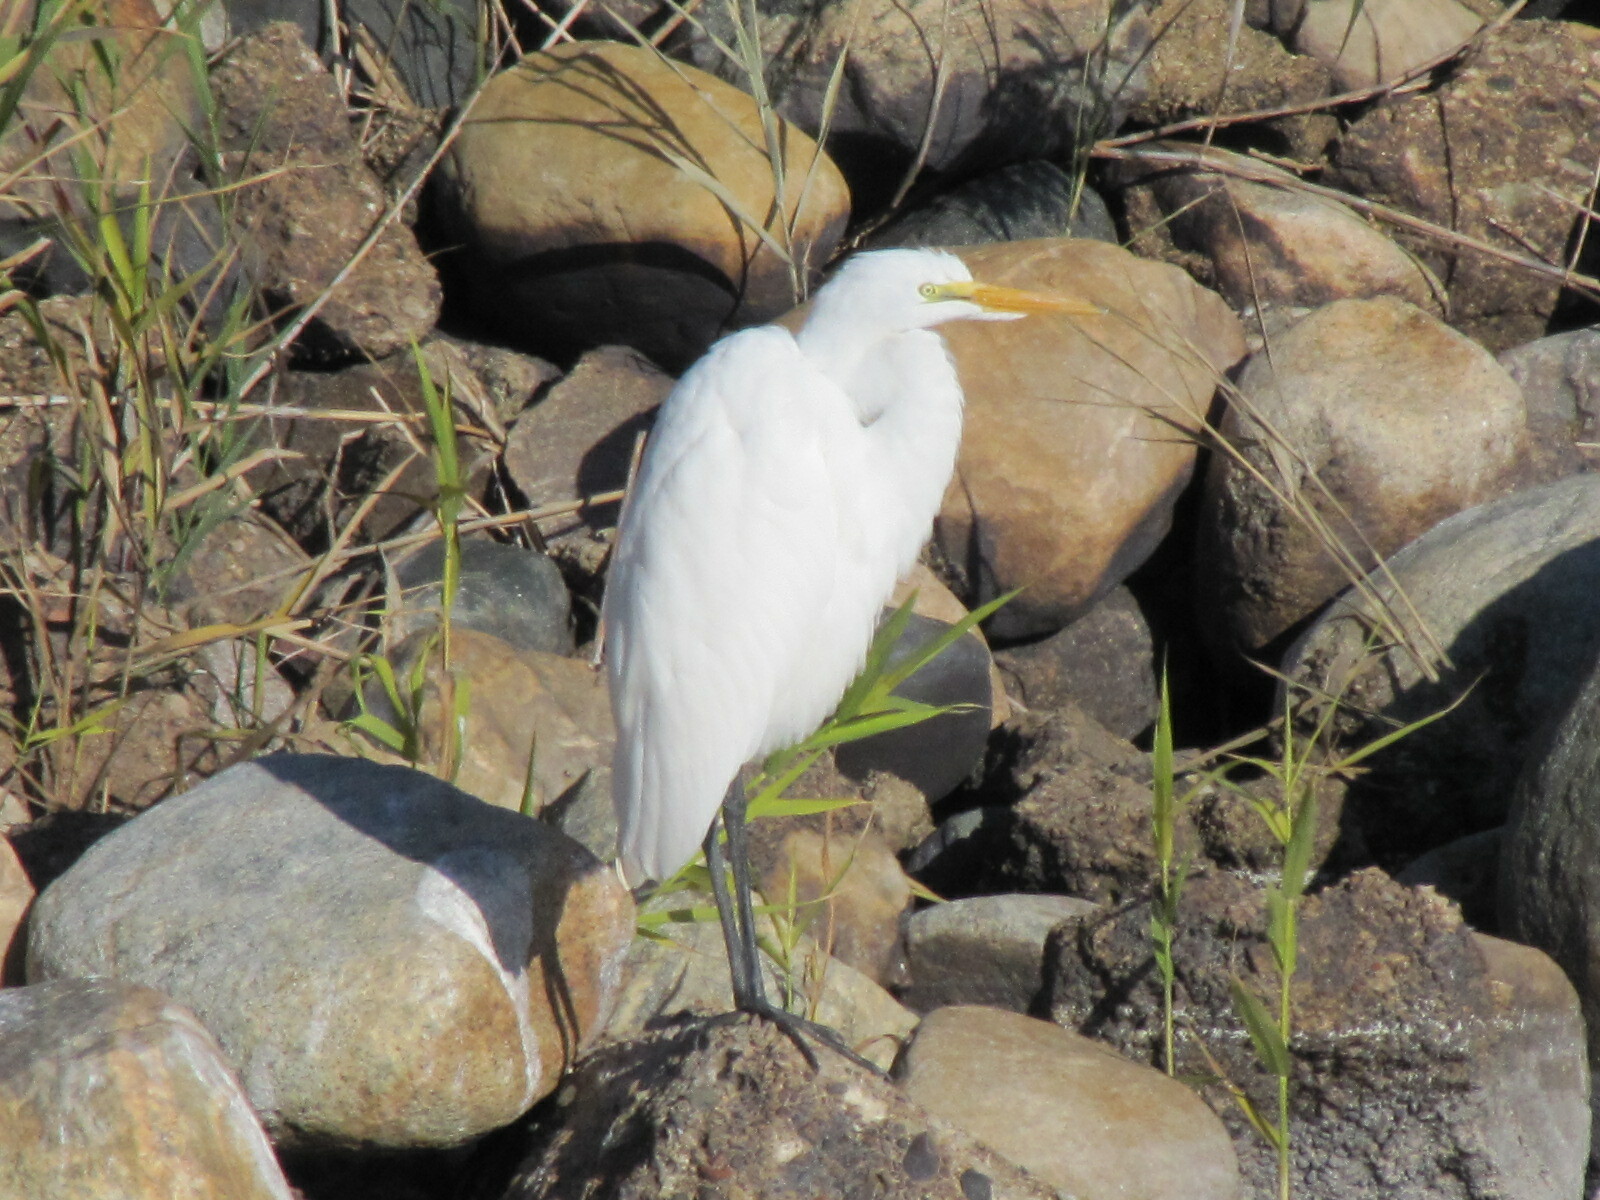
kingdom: Animalia
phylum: Chordata
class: Aves
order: Pelecaniformes
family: Ardeidae
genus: Ardea
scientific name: Ardea alba
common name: Great egret
